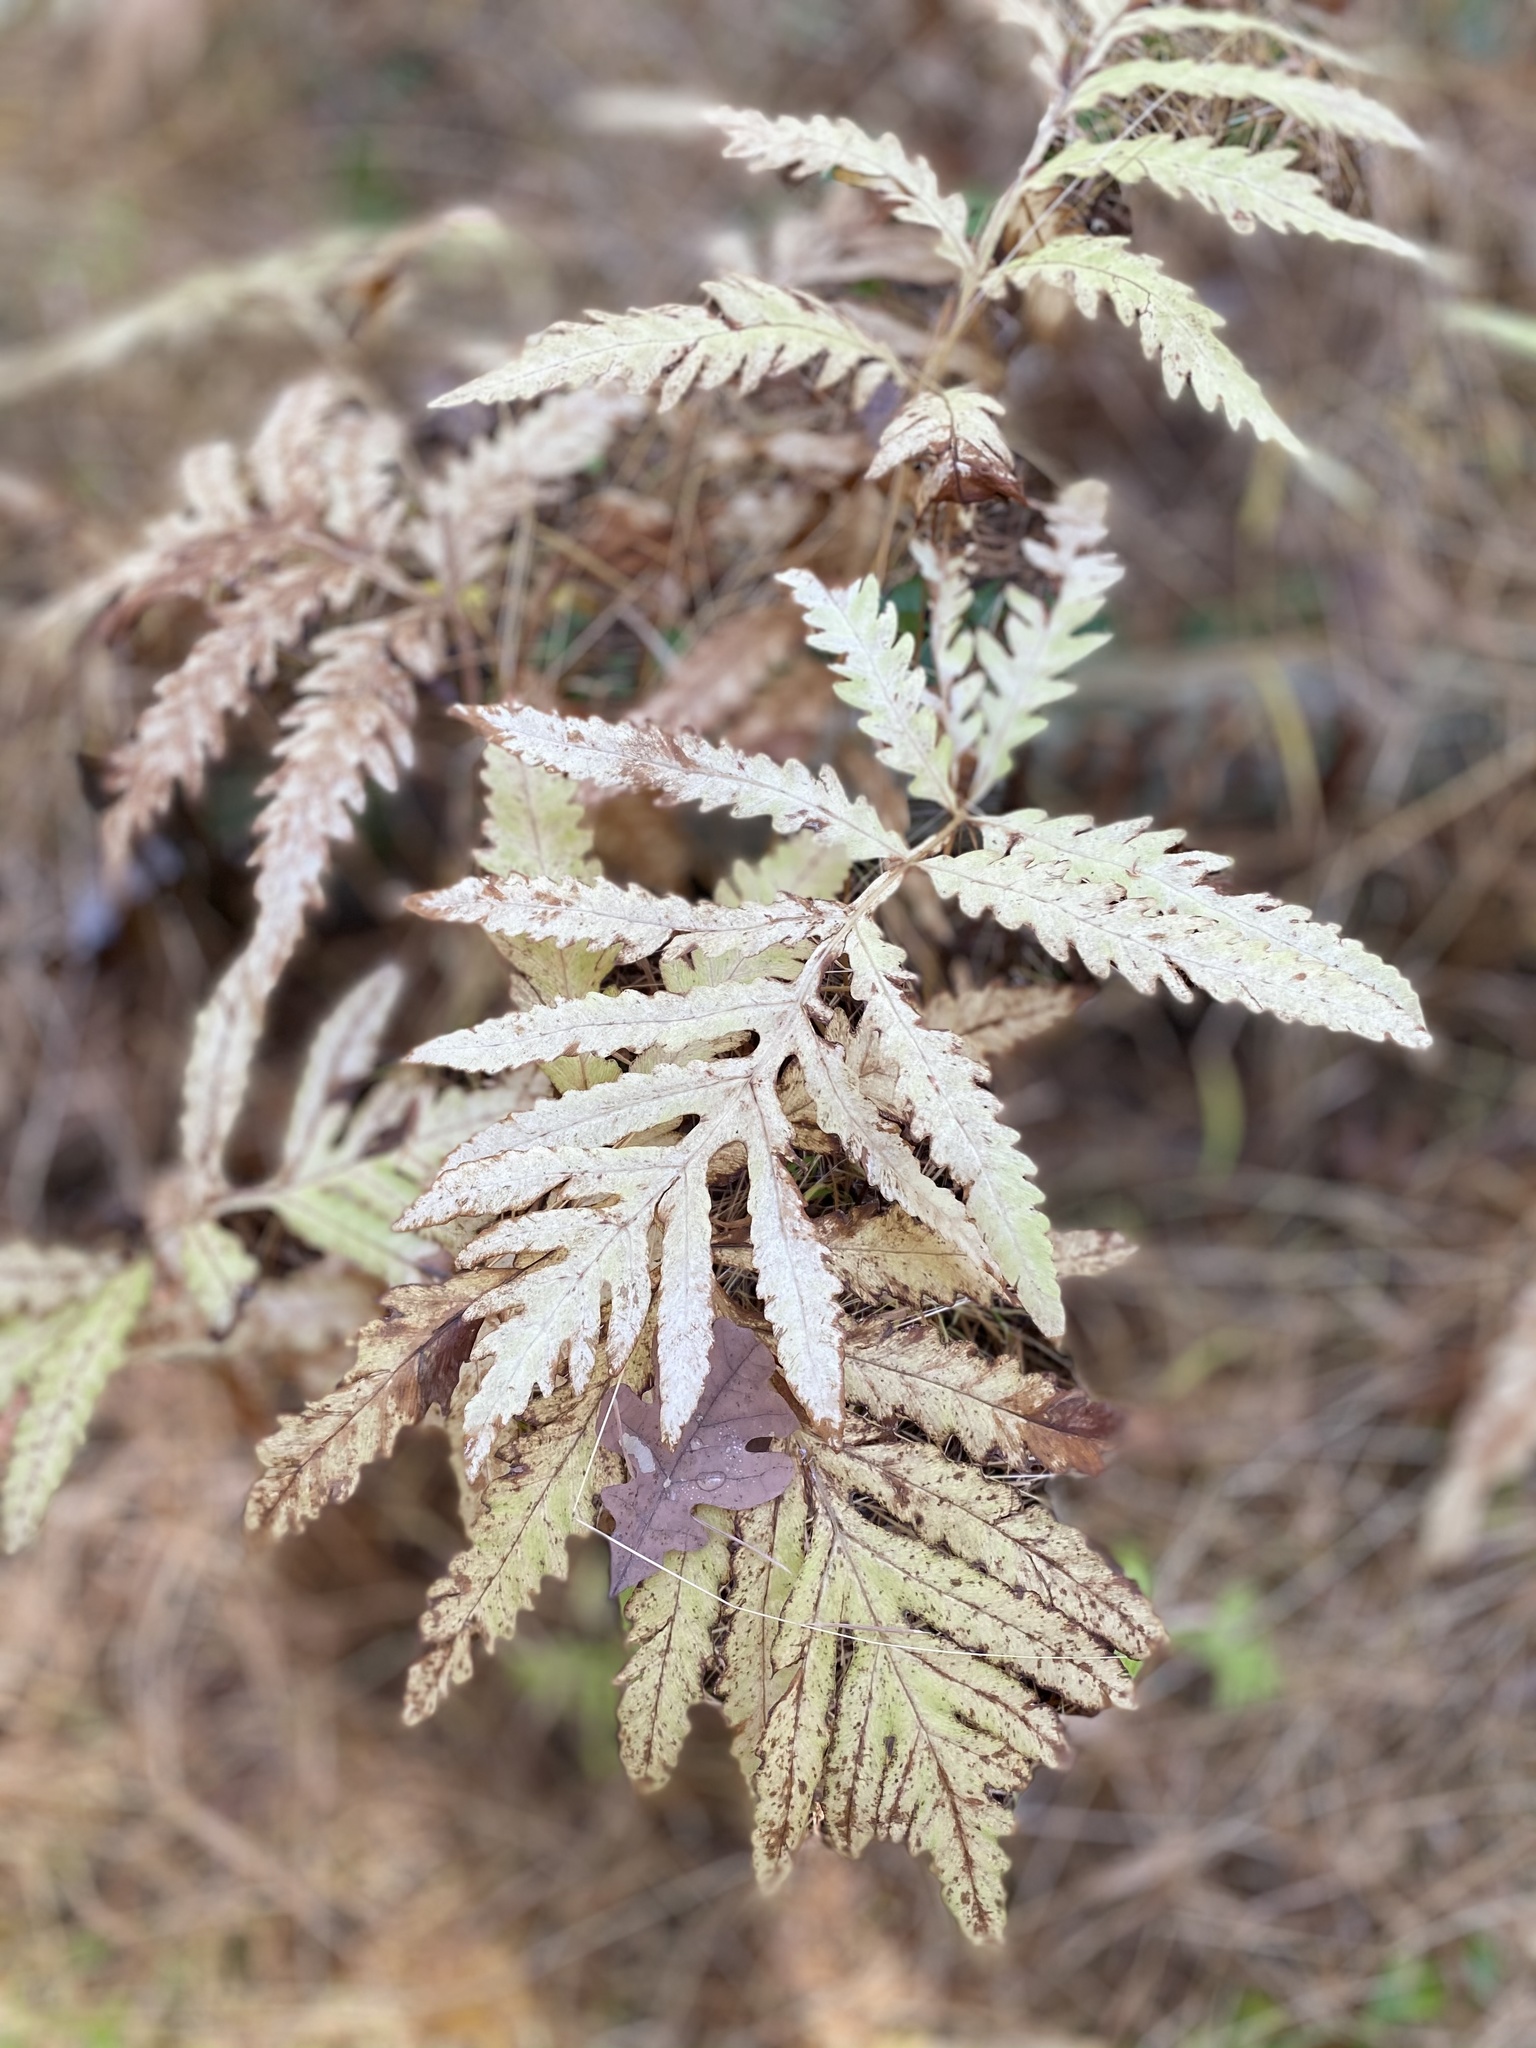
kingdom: Plantae
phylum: Tracheophyta
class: Polypodiopsida
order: Polypodiales
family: Onocleaceae
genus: Onoclea
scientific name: Onoclea sensibilis
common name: Sensitive fern
